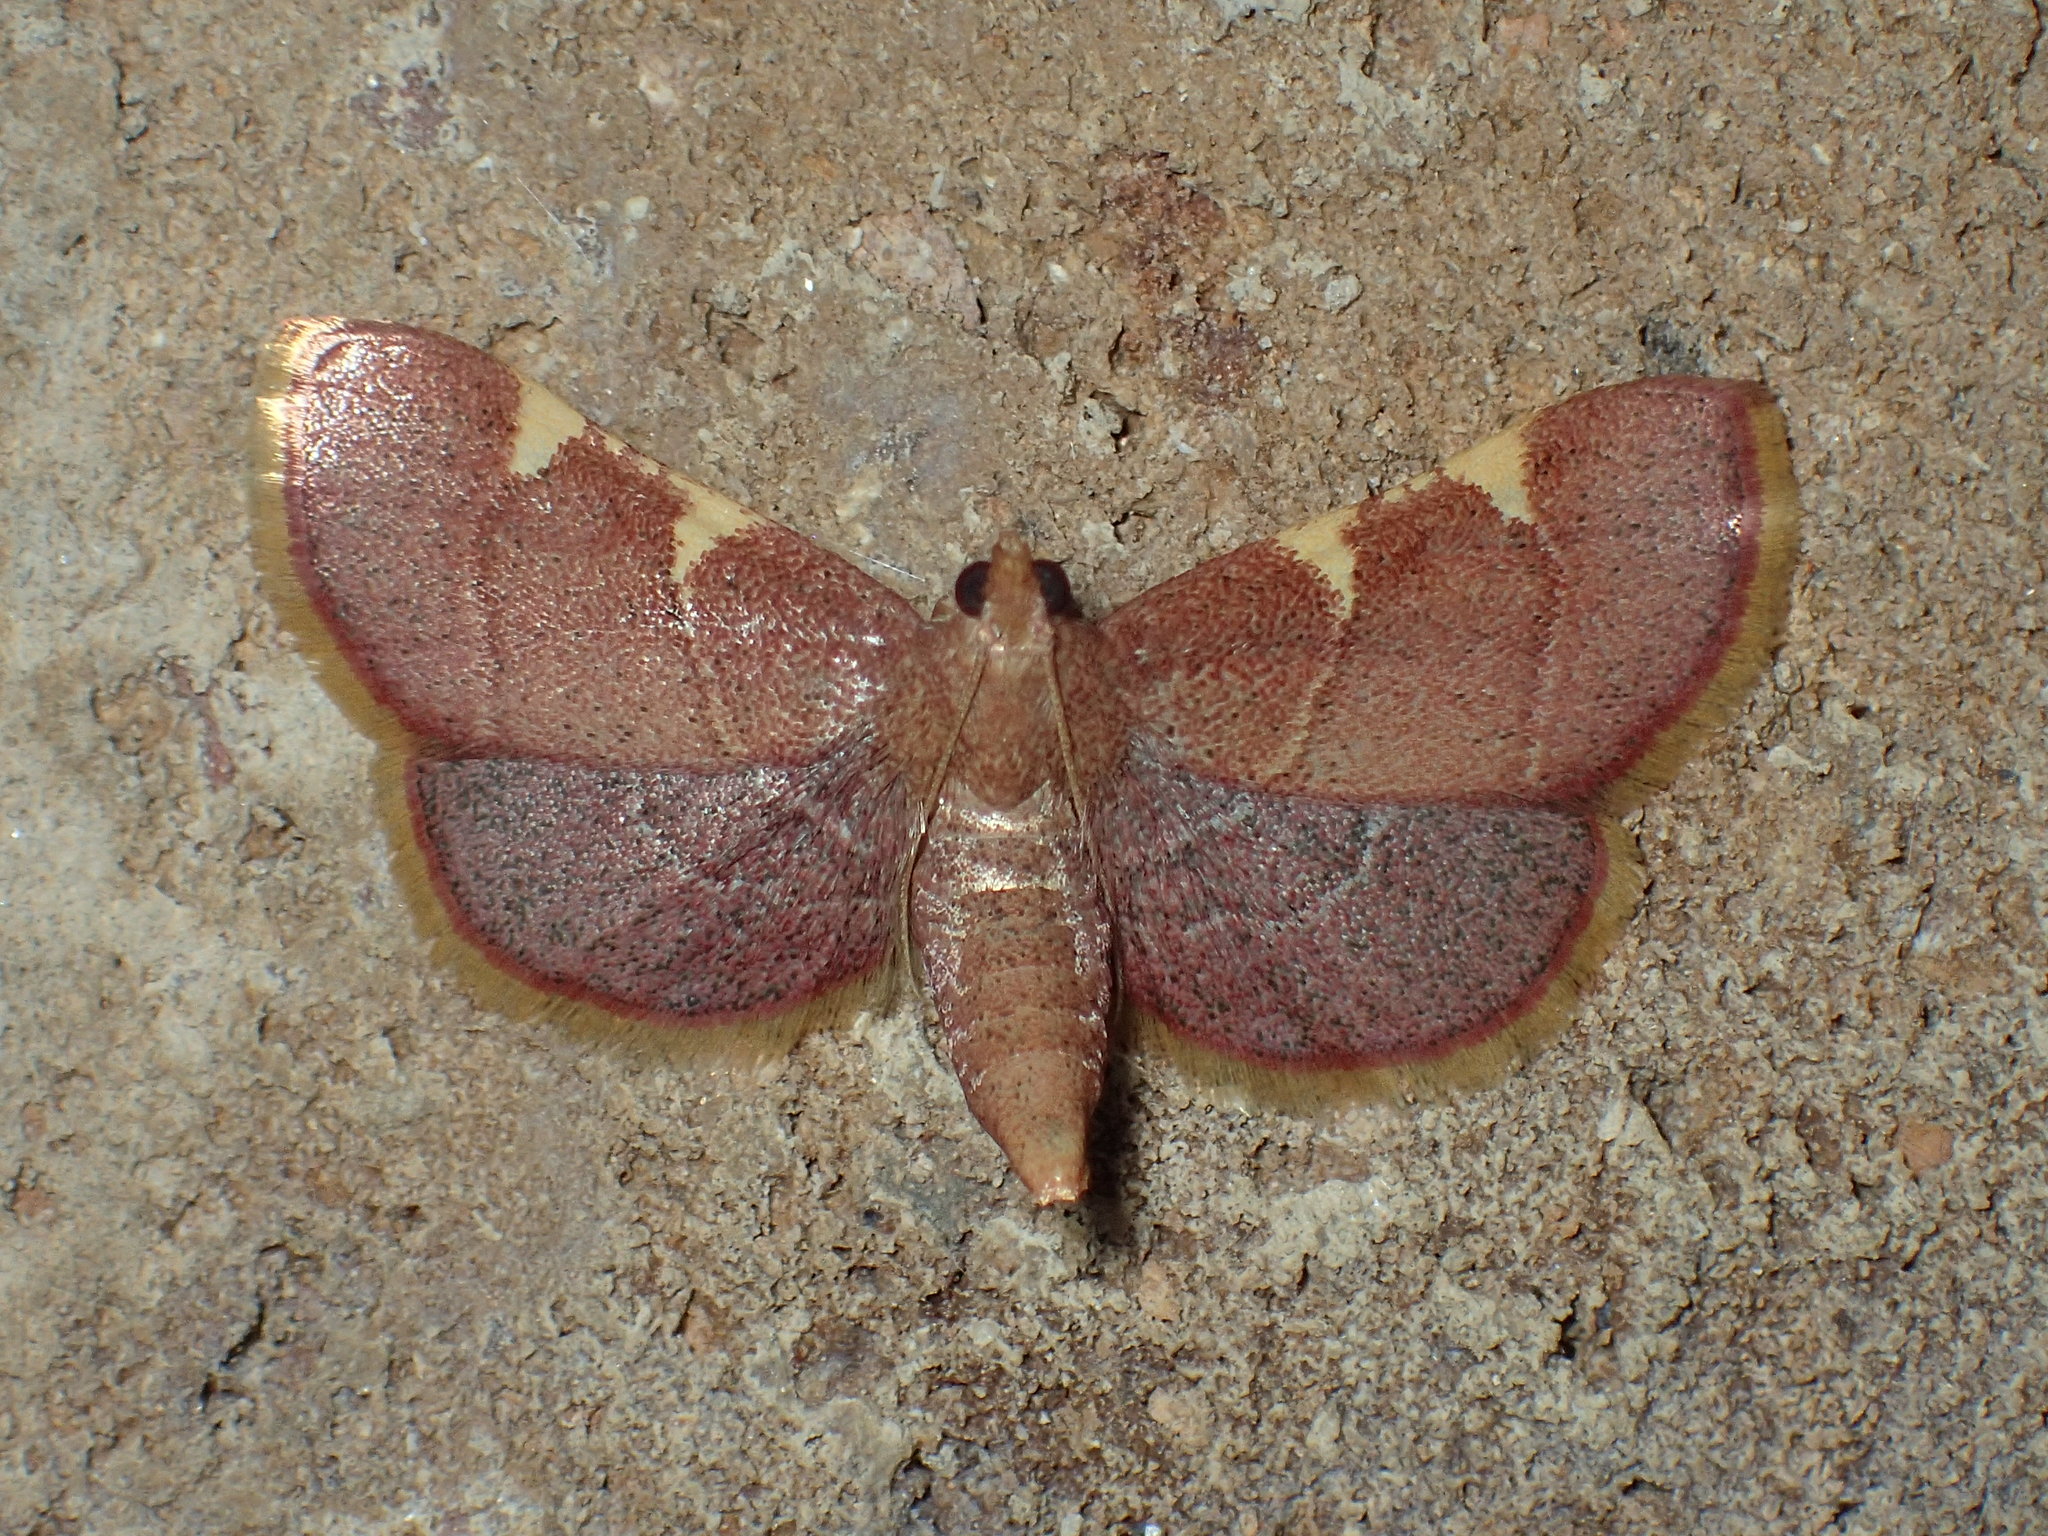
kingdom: Animalia
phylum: Arthropoda
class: Insecta
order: Lepidoptera
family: Pyralidae
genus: Hypsopygia
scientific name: Hypsopygia olinalis
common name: Yellow-fringed dolichomia moth
